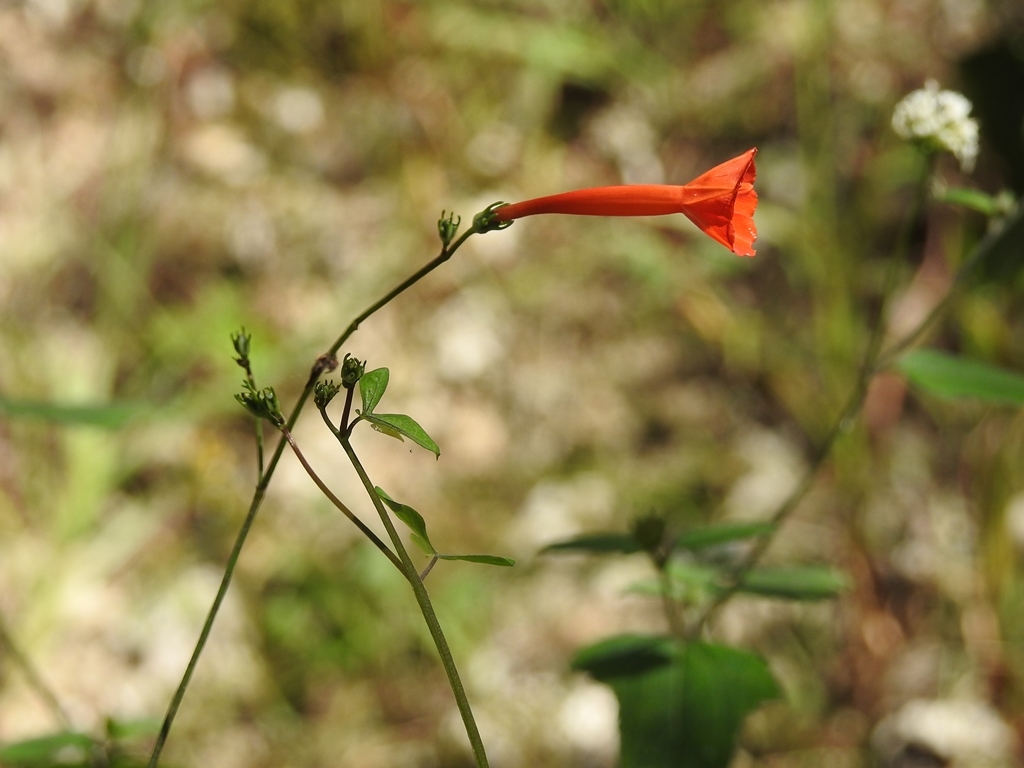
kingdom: Plantae
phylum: Tracheophyta
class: Magnoliopsida
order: Solanales
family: Convolvulaceae
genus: Ipomoea
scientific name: Ipomoea hederifolia
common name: Ivy-leaf morning-glory
